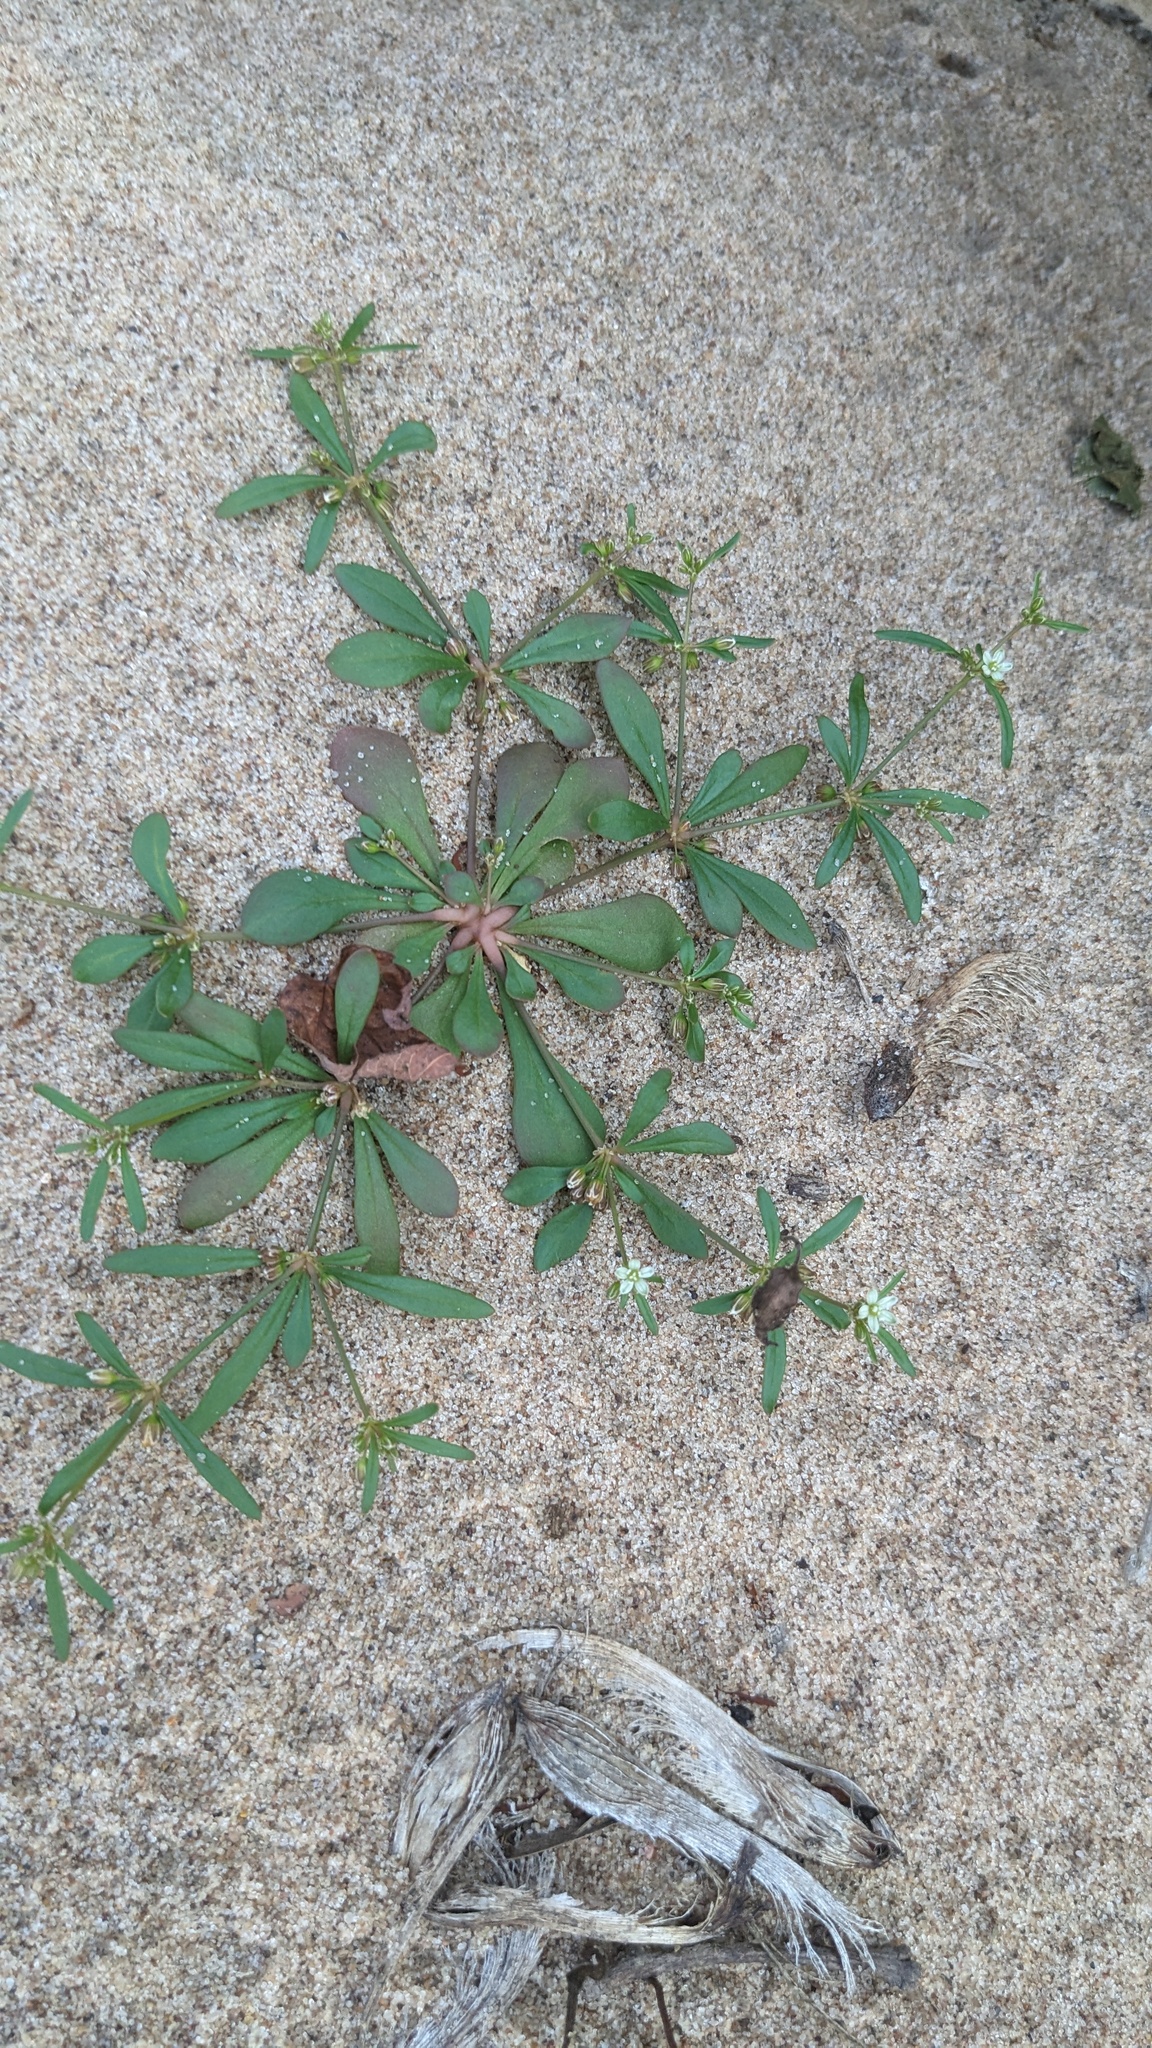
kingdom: Plantae
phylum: Tracheophyta
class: Magnoliopsida
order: Caryophyllales
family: Molluginaceae
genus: Mollugo
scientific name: Mollugo verticillata
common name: Green carpetweed
